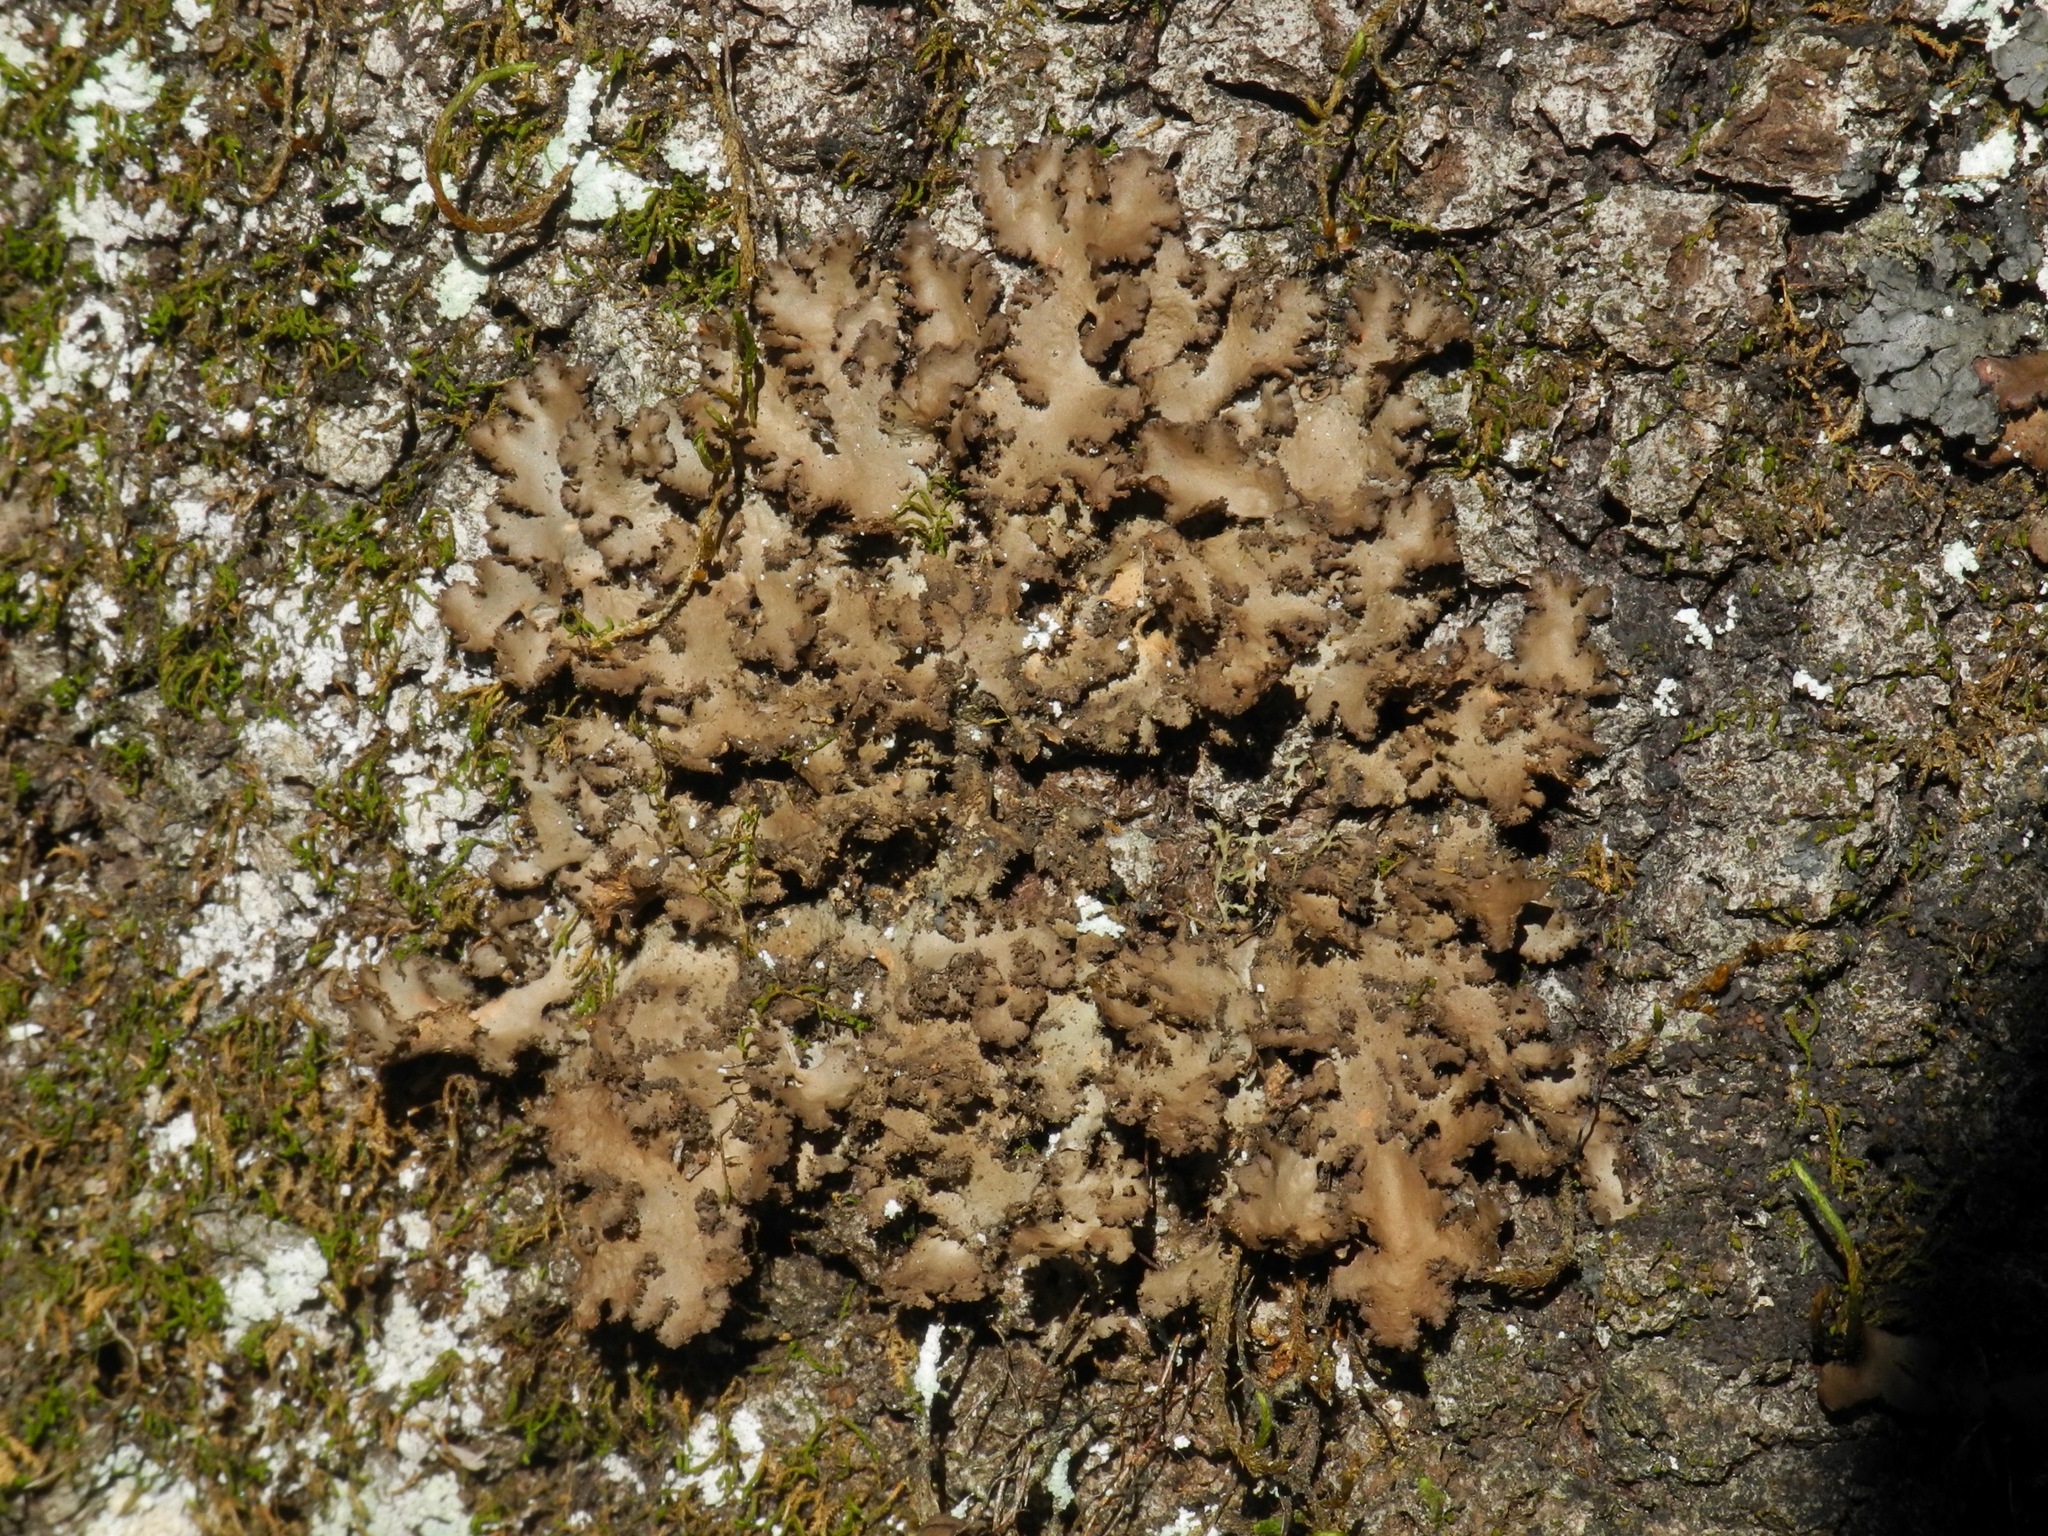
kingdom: Fungi
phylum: Ascomycota
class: Lecanoromycetes
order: Peltigerales
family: Lobariaceae
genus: Sticta
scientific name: Sticta beauvoisii
